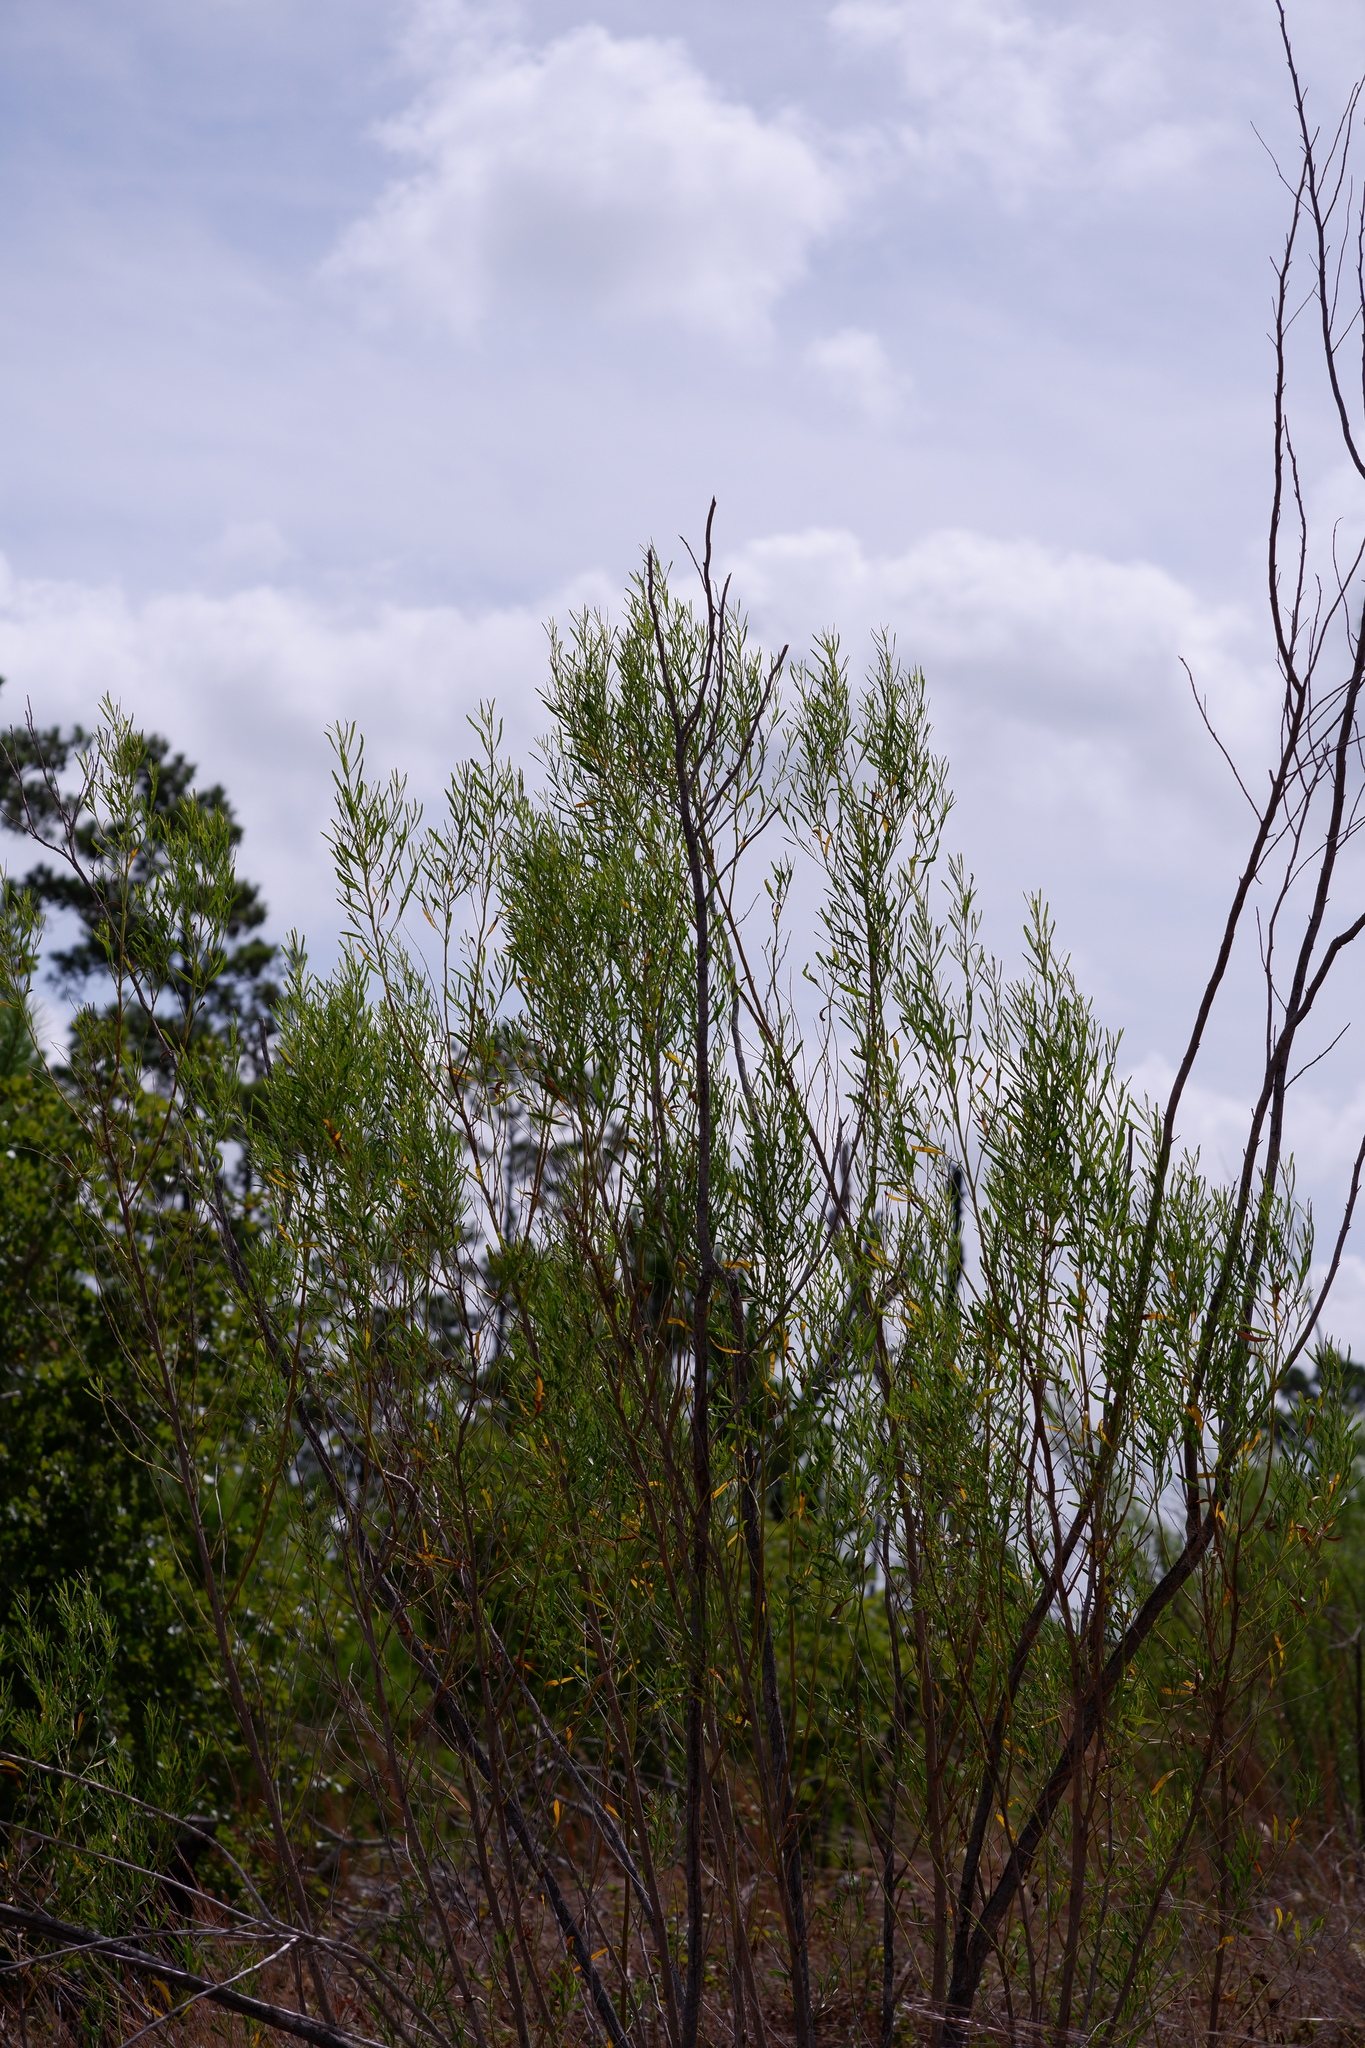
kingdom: Plantae
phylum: Tracheophyta
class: Magnoliopsida
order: Asterales
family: Asteraceae
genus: Baccharis
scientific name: Baccharis neglecta
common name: Roosevelt-weed
